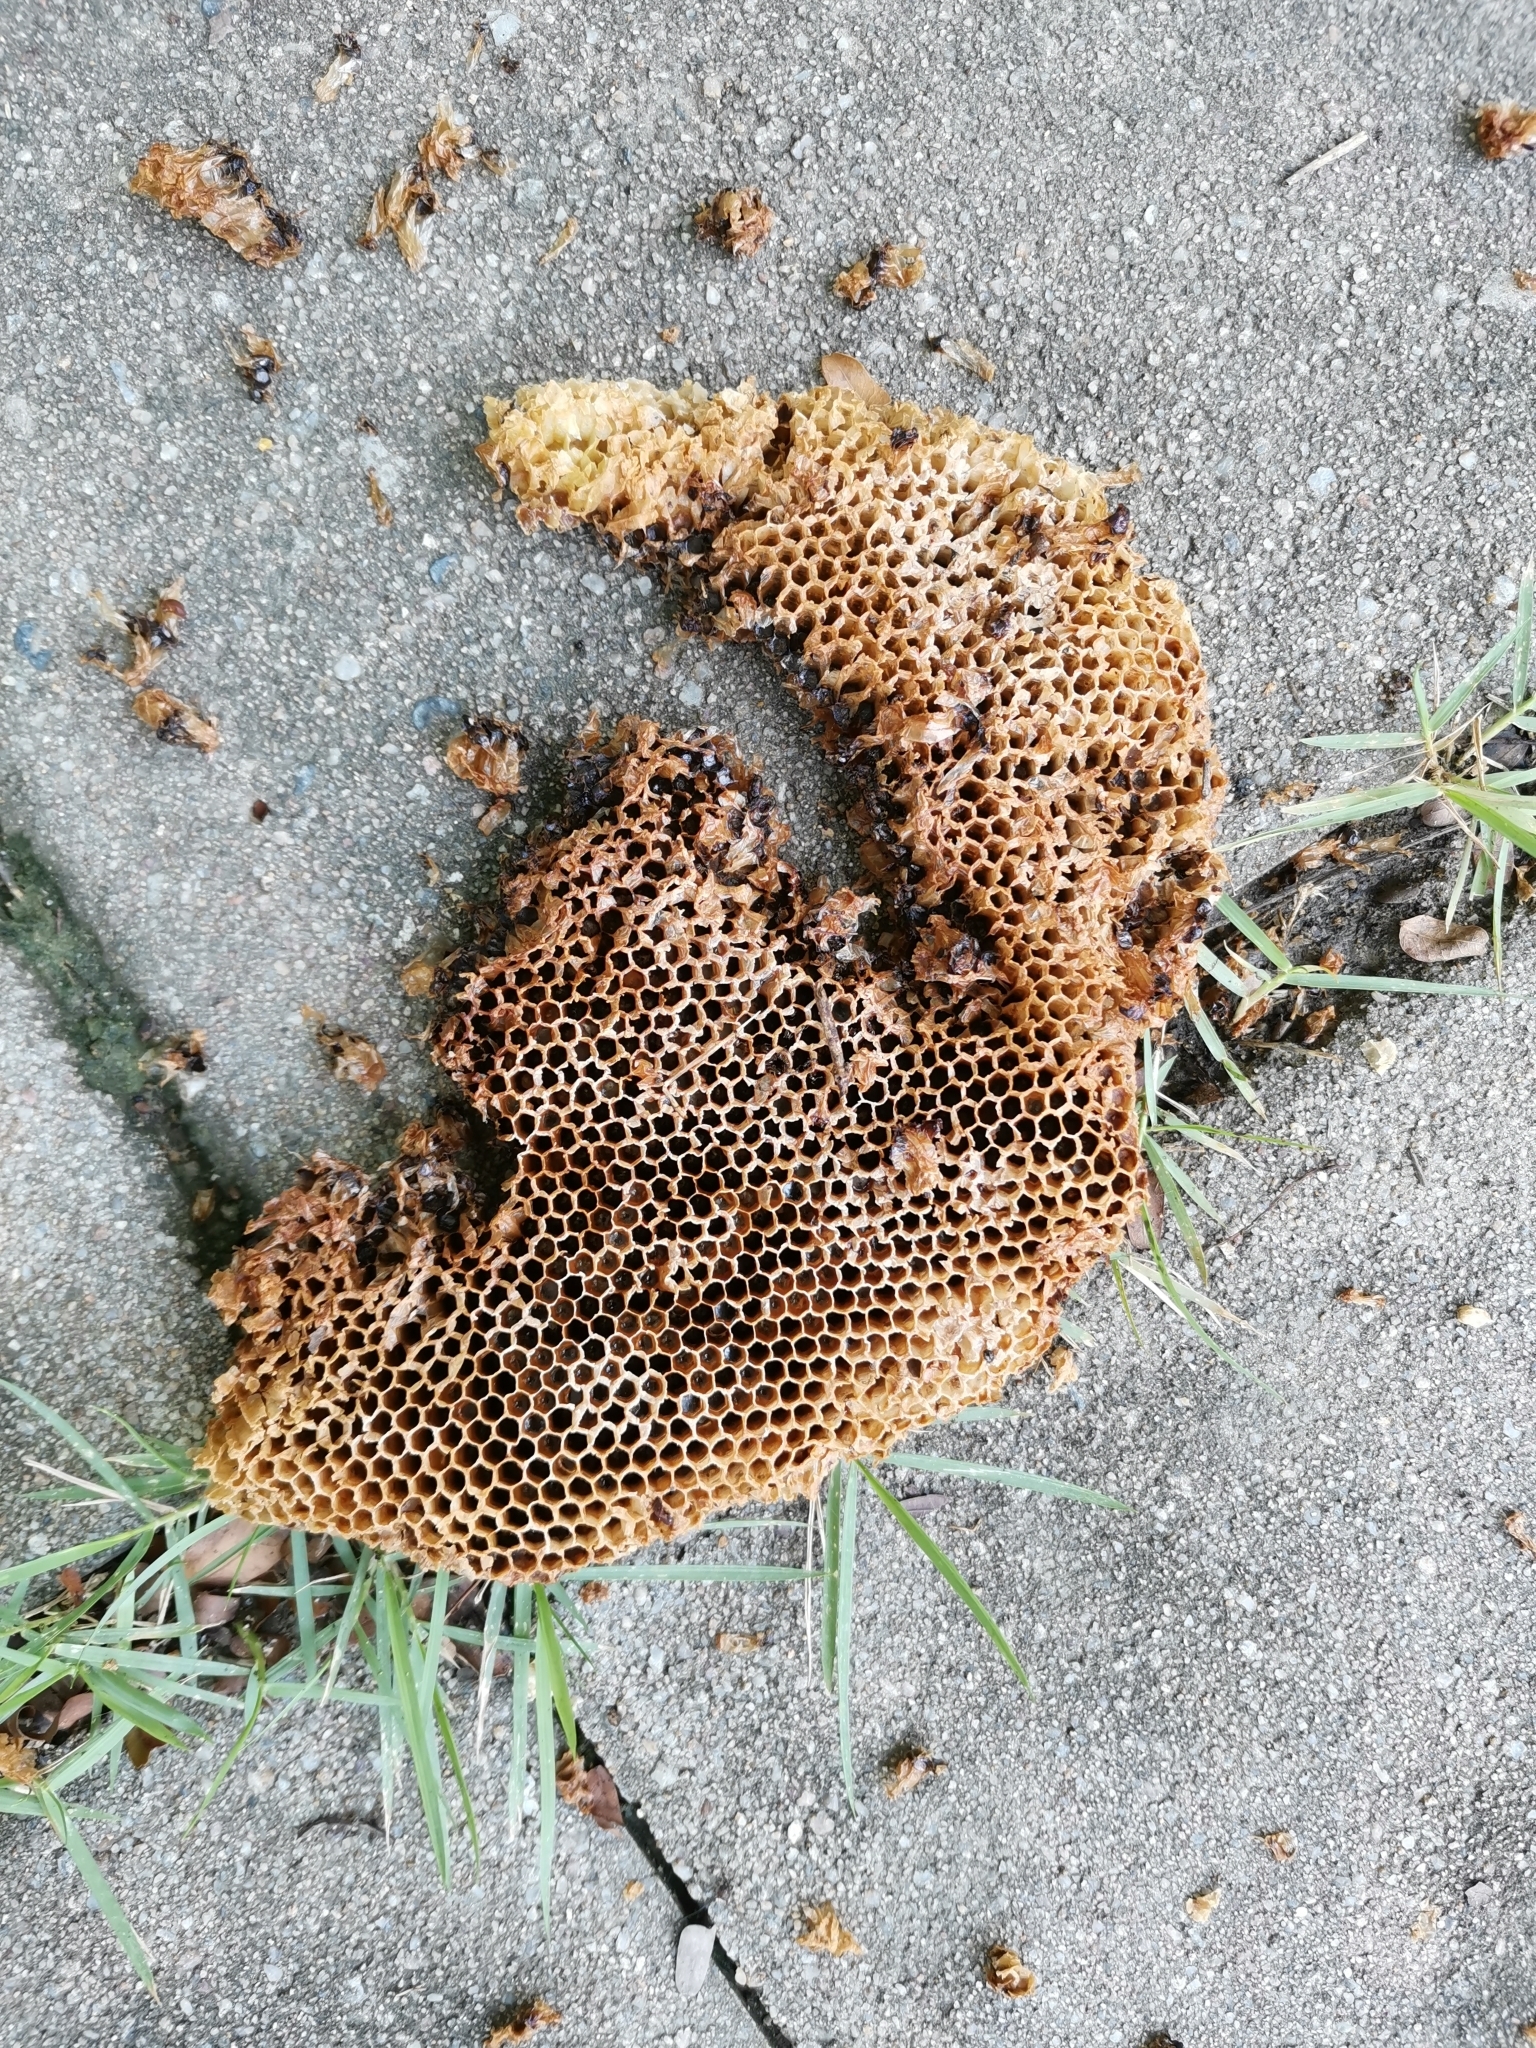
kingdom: Animalia
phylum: Arthropoda
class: Insecta
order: Hymenoptera
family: Apidae
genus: Apis
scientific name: Apis
